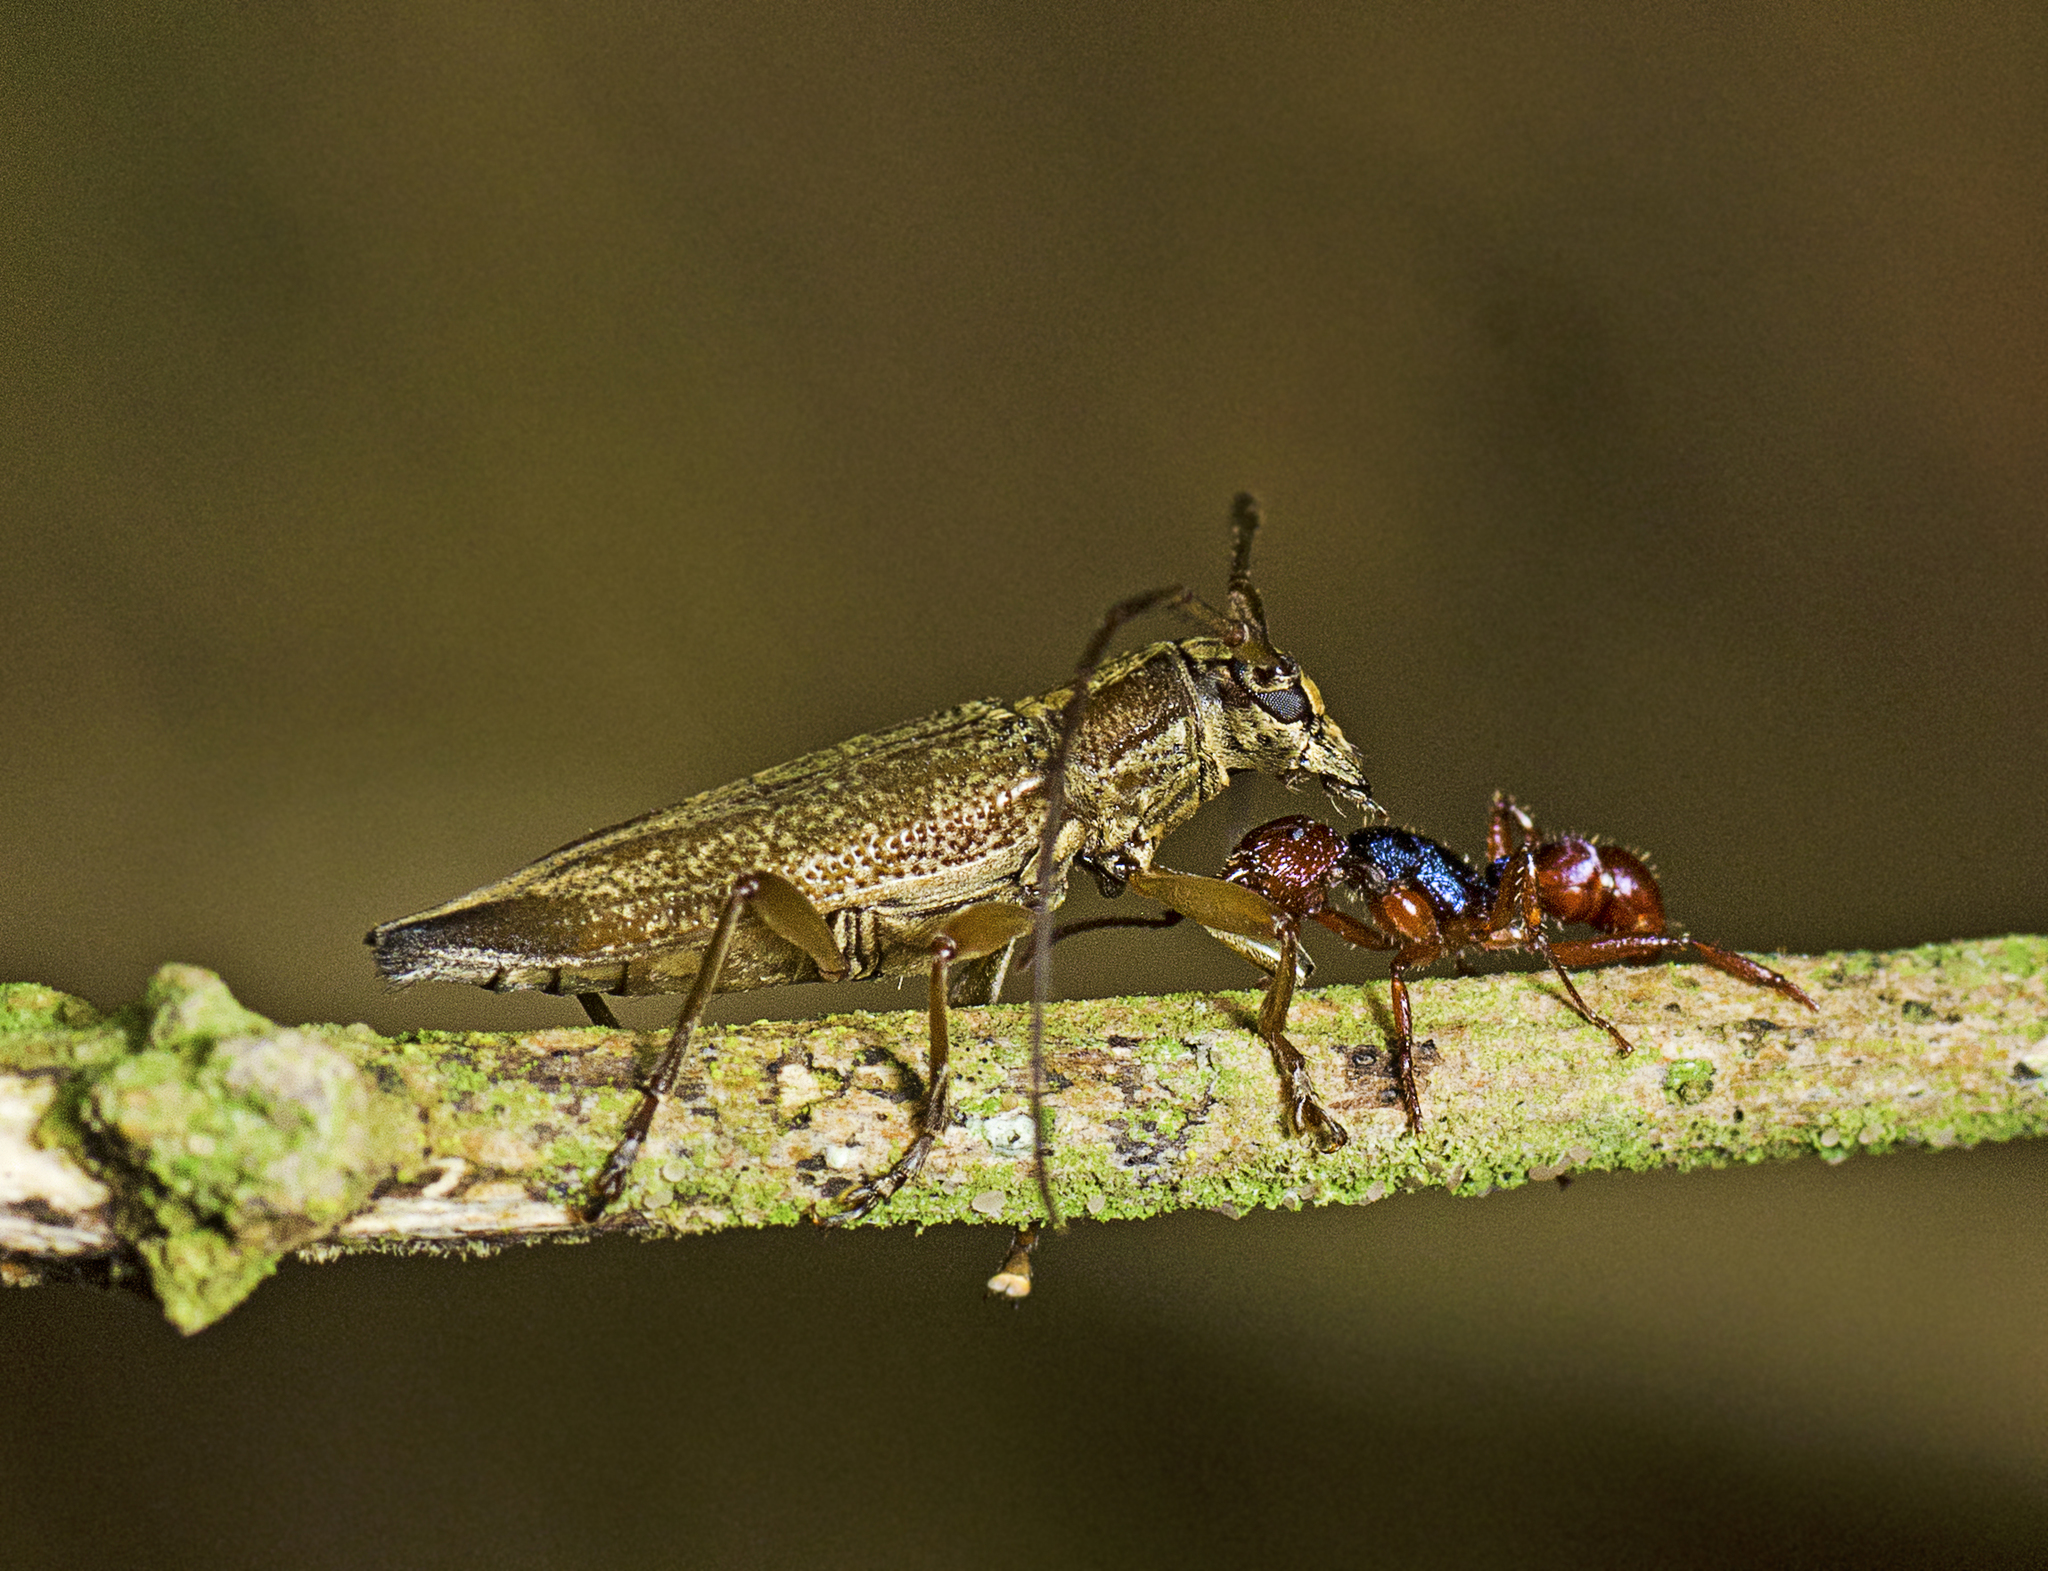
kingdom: Animalia
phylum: Arthropoda
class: Insecta
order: Hymenoptera
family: Formicidae
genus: Rhytidoponera
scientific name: Rhytidoponera croesus
